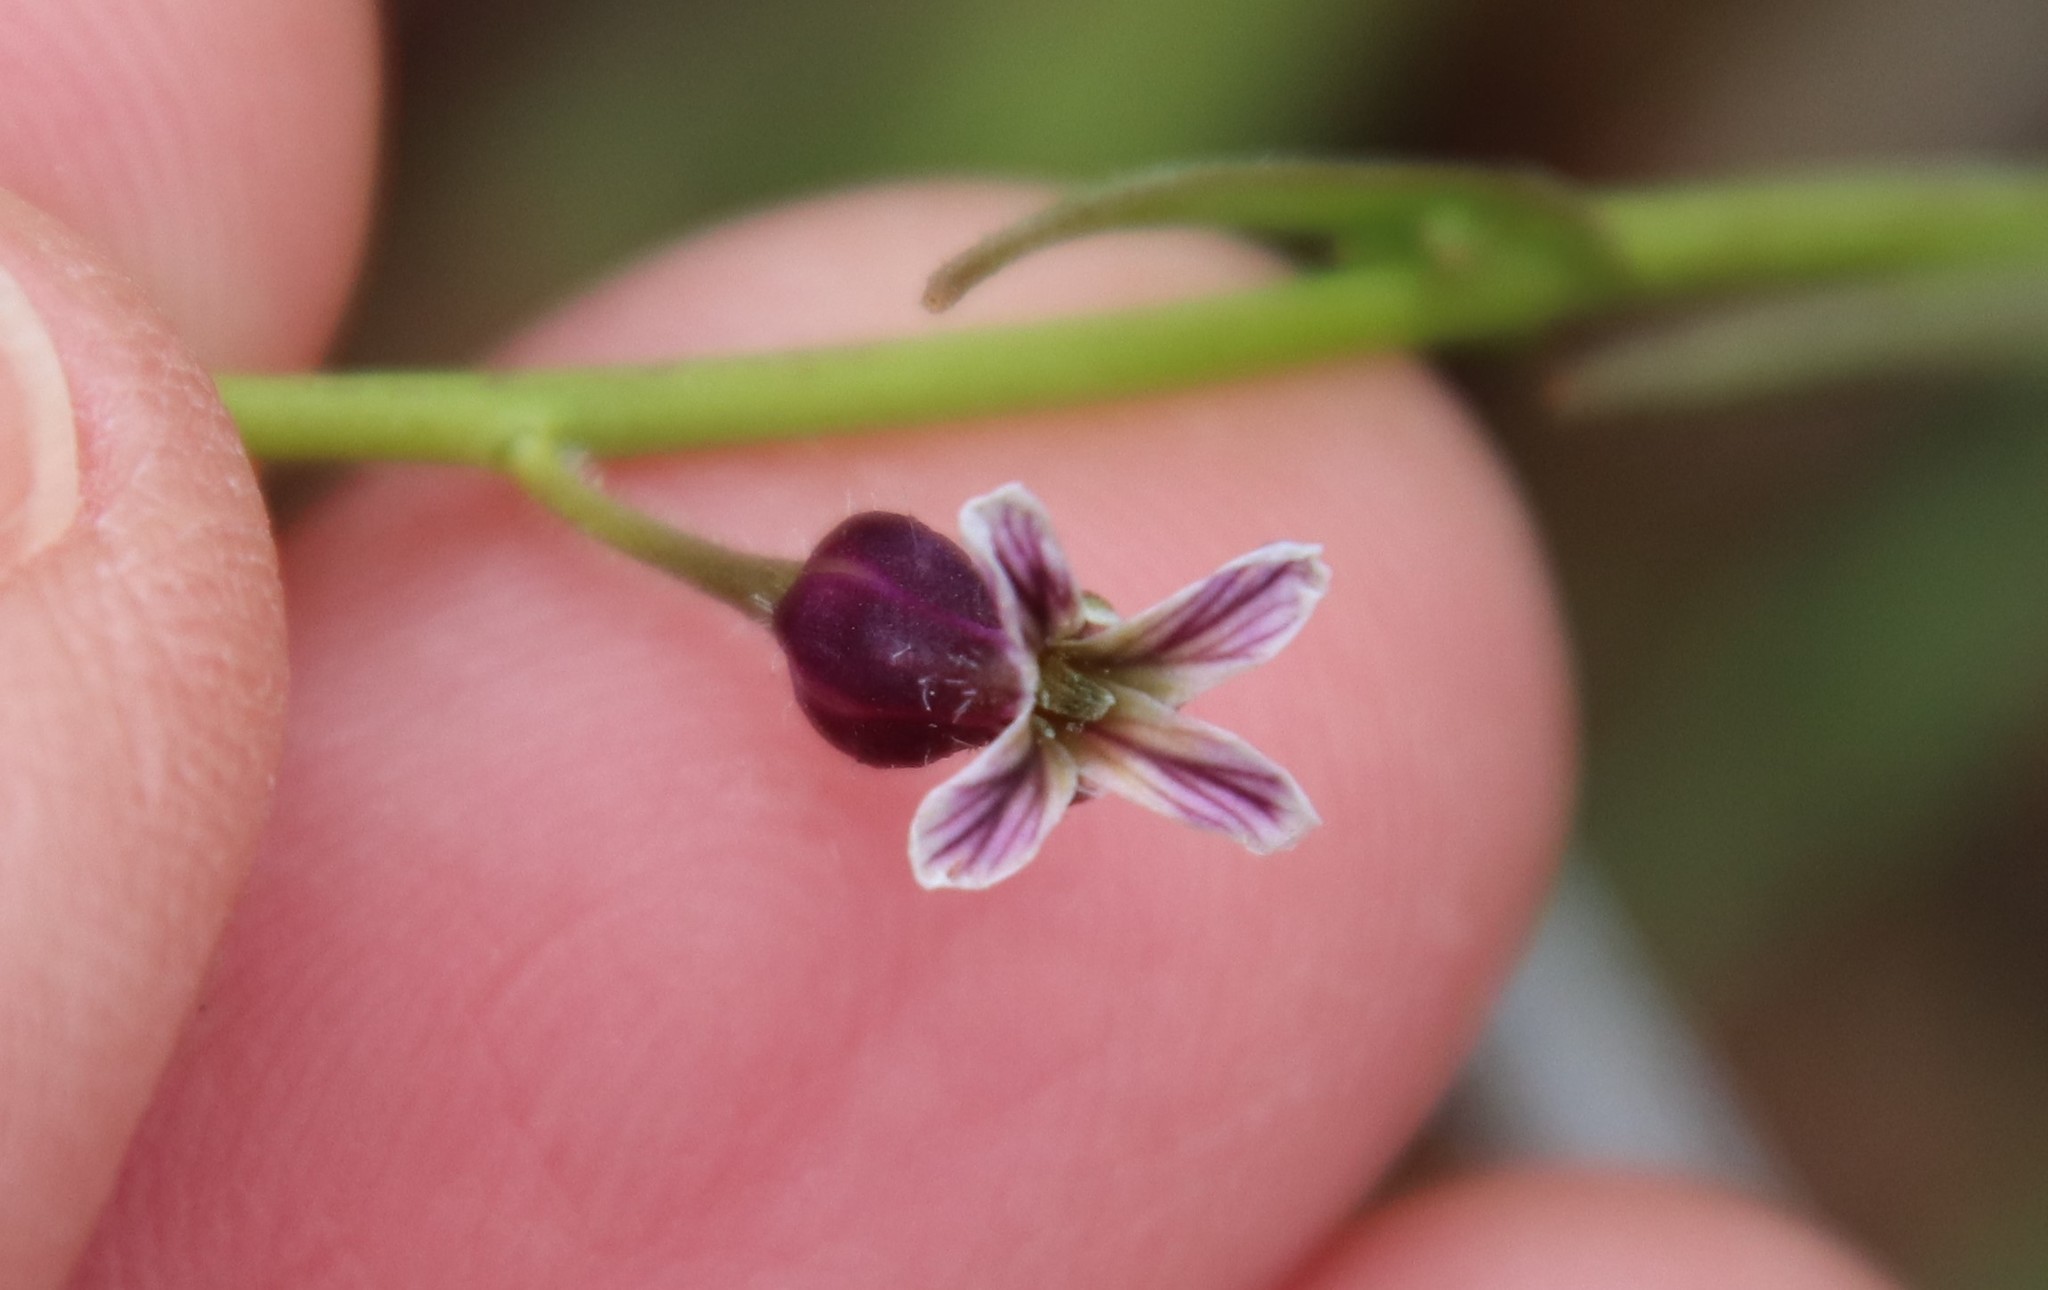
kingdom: Plantae
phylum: Tracheophyta
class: Magnoliopsida
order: Brassicales
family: Brassicaceae
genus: Streptanthus
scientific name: Streptanthus heterophyllus
